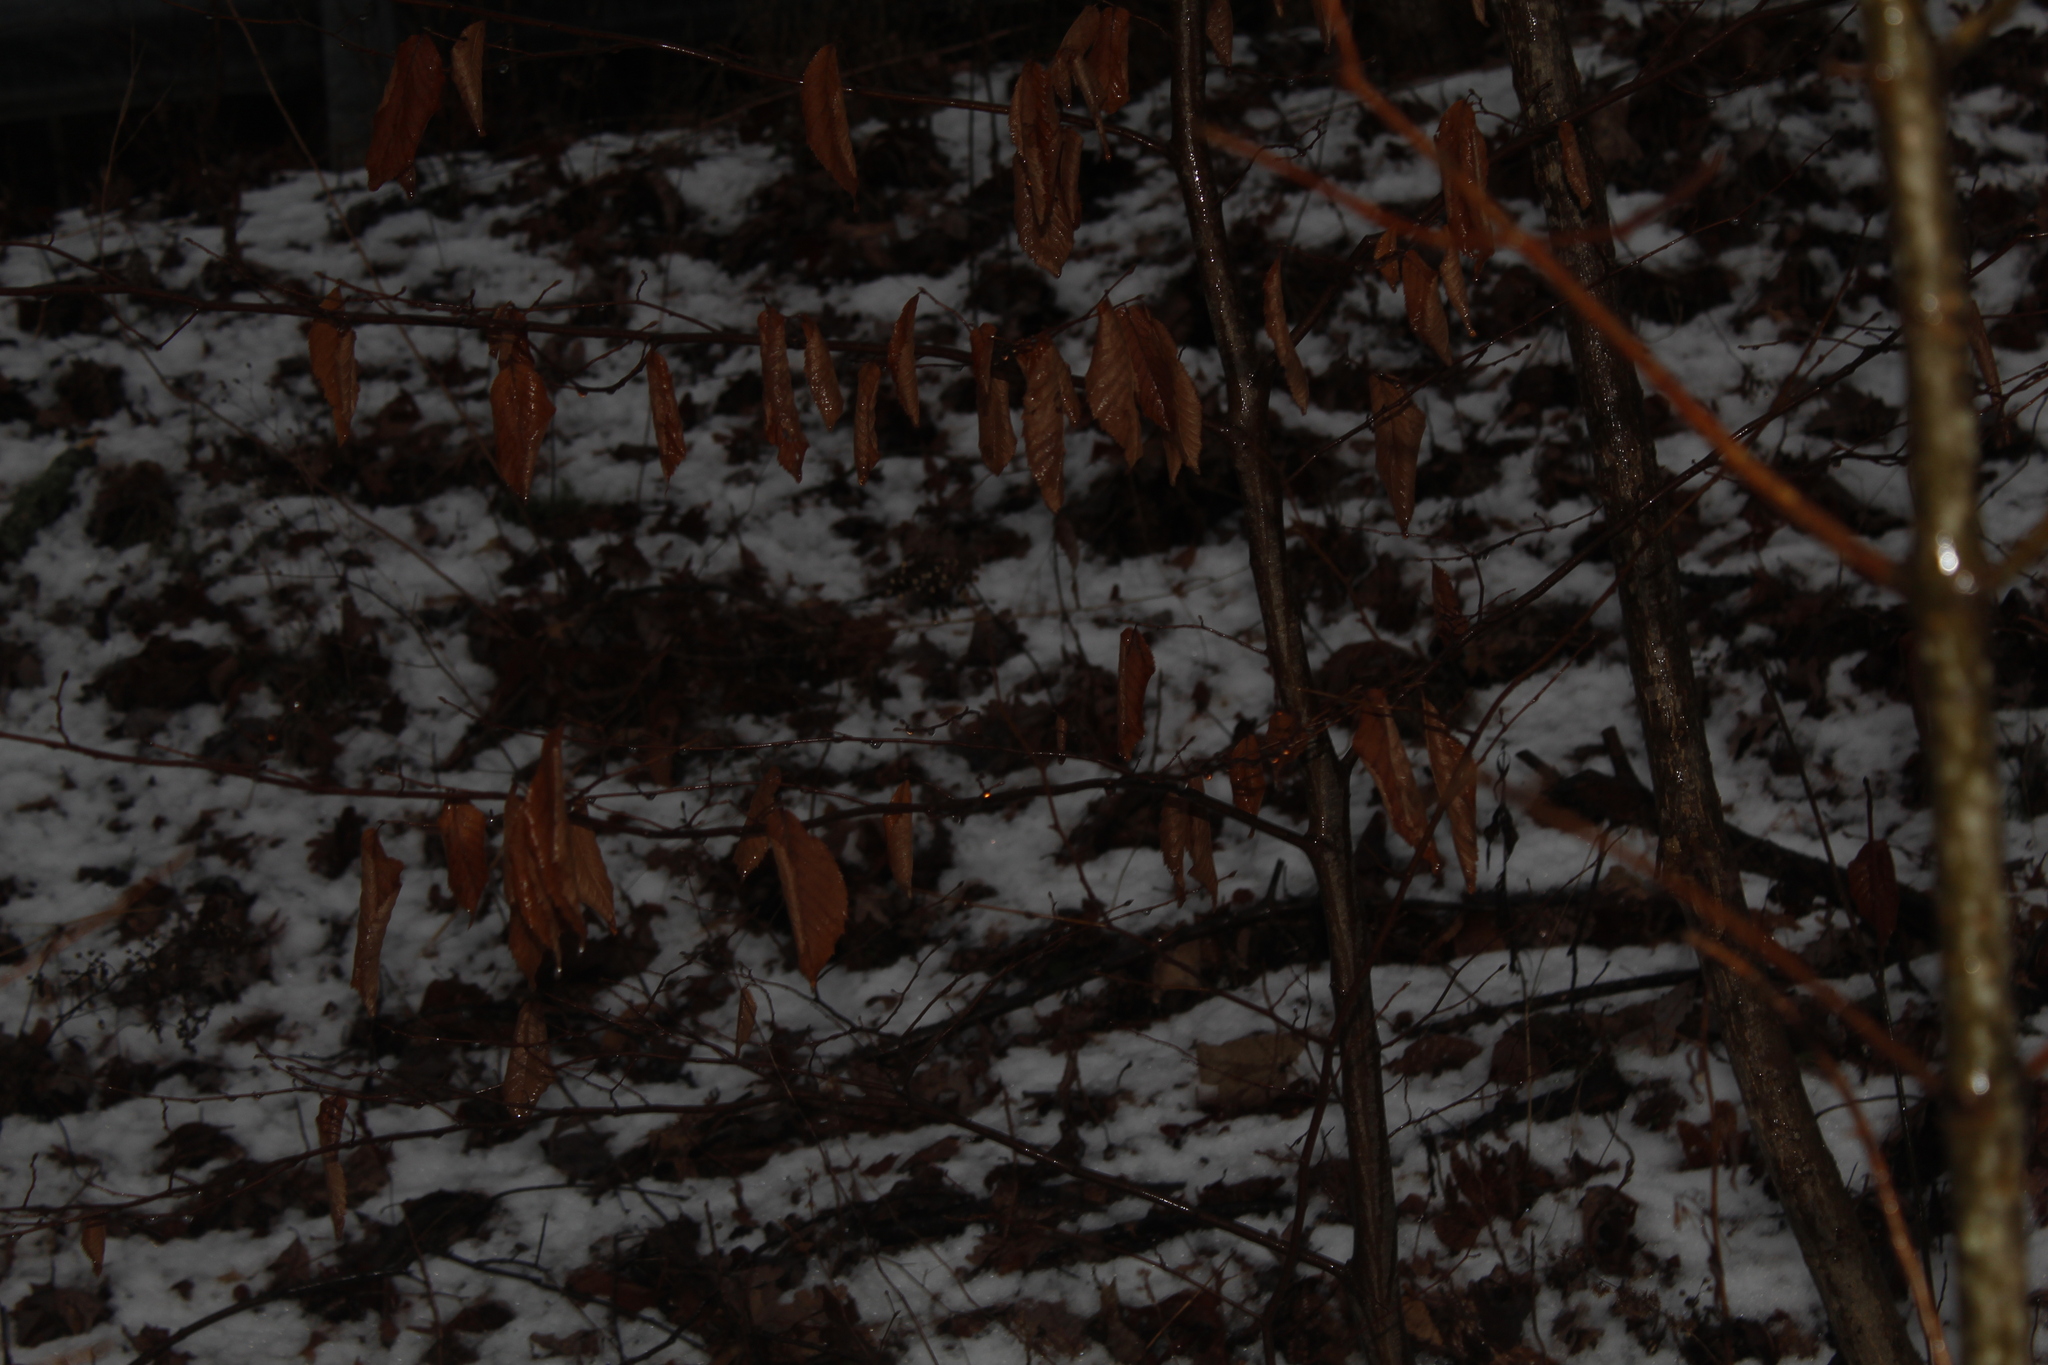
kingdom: Plantae
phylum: Tracheophyta
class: Magnoliopsida
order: Fagales
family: Fagaceae
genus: Fagus
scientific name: Fagus grandifolia
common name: American beech
